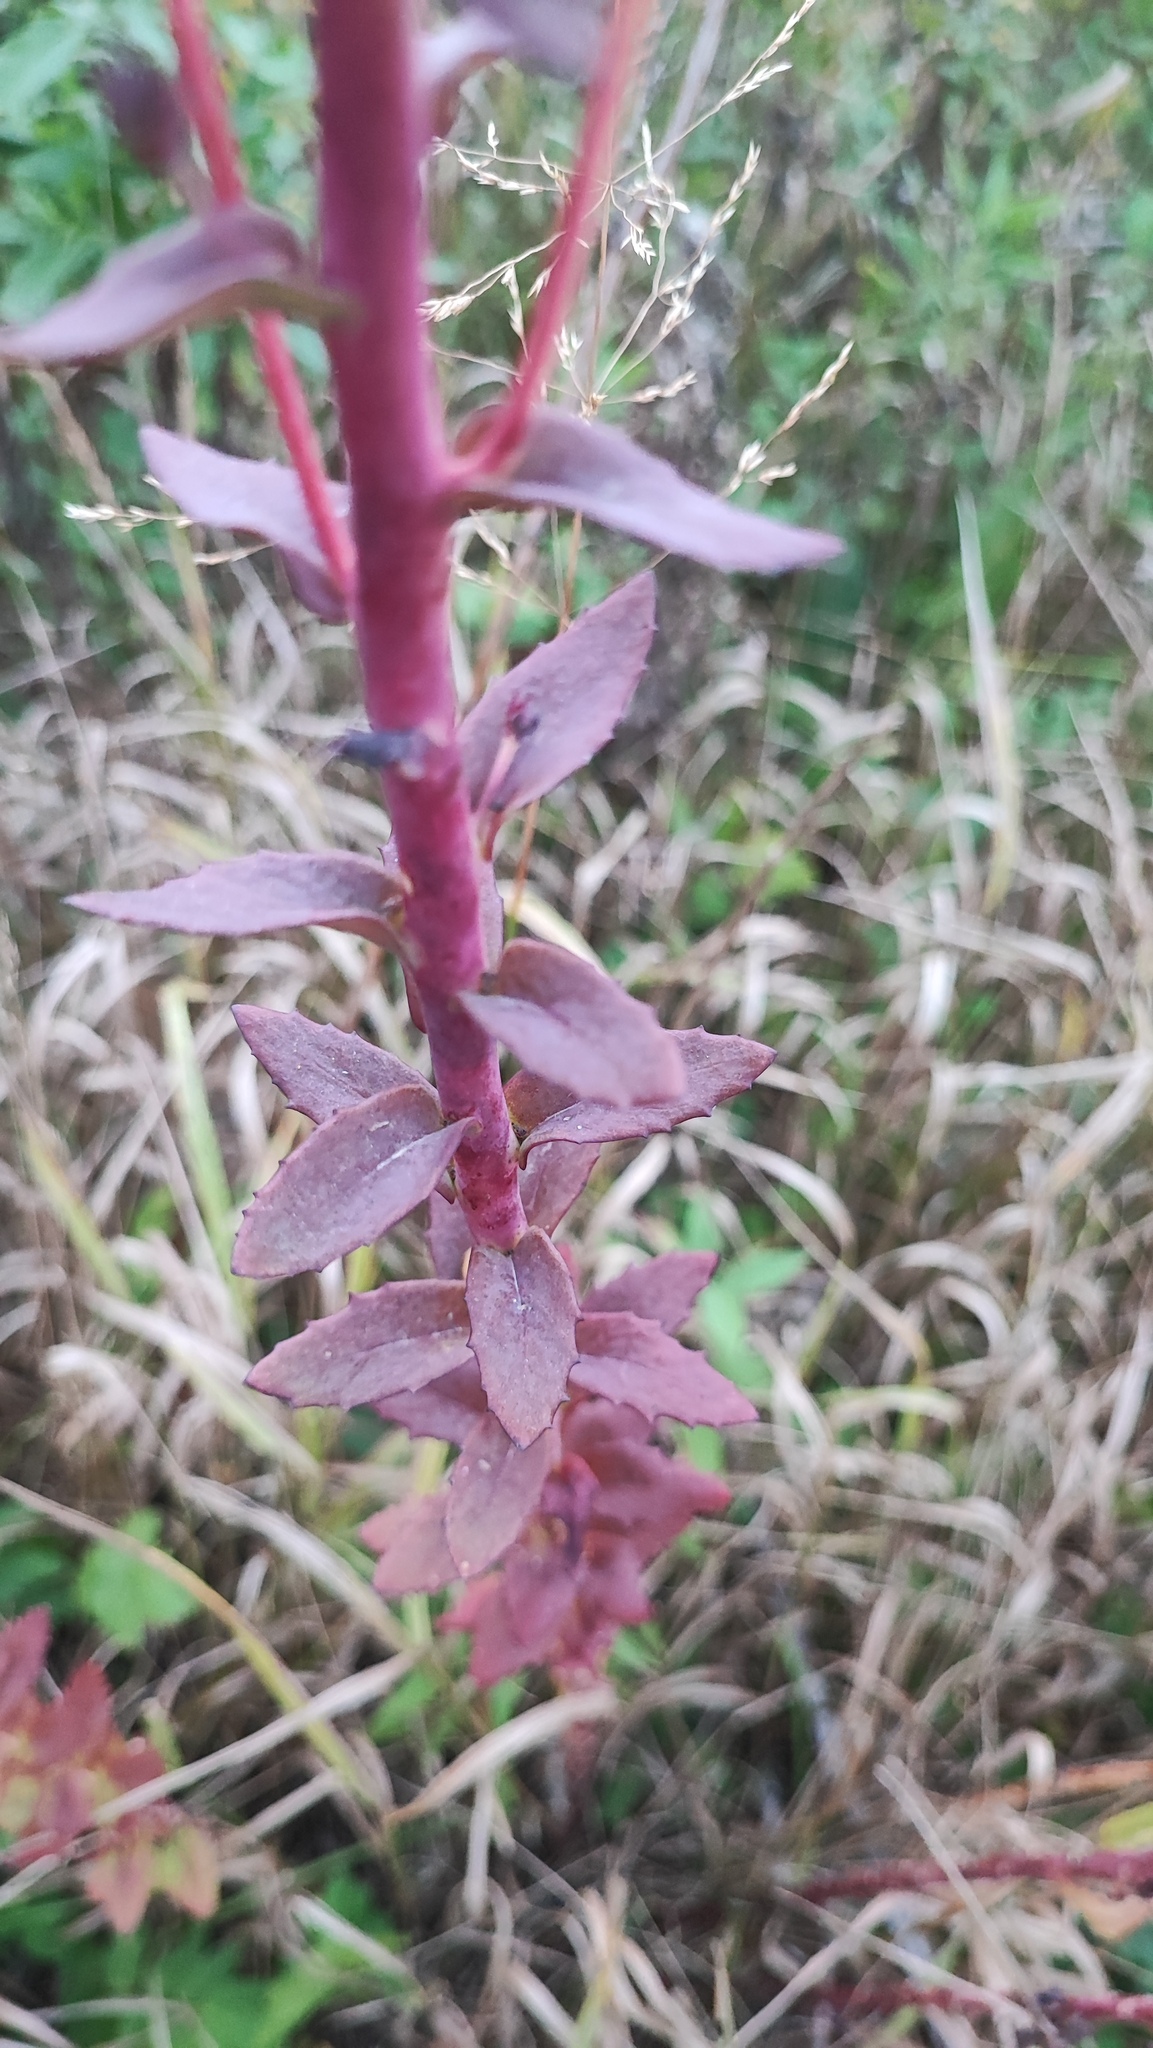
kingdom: Plantae
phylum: Tracheophyta
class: Magnoliopsida
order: Saxifragales
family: Crassulaceae
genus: Hylotelephium
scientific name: Hylotelephium telephium
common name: Live-forever
